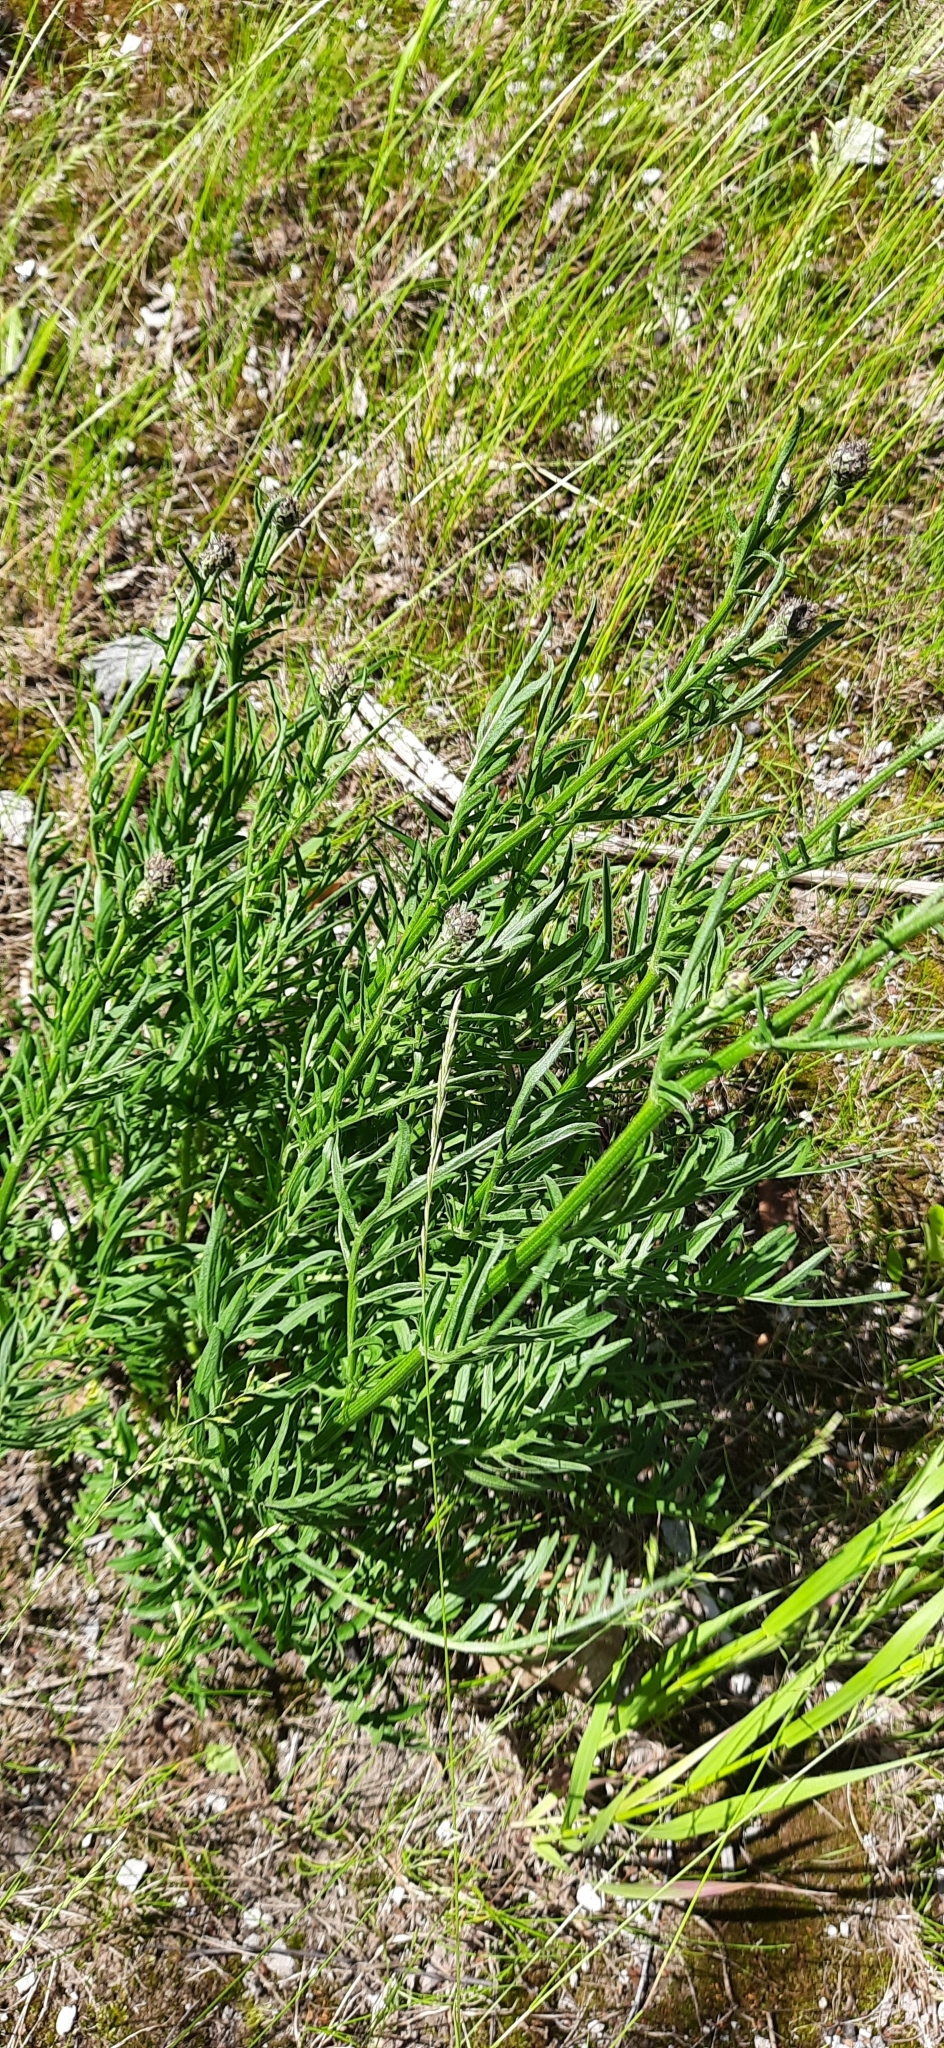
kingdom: Plantae
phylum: Tracheophyta
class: Magnoliopsida
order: Asterales
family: Asteraceae
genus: Centaurea
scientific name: Centaurea scabiosa
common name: Greater knapweed
